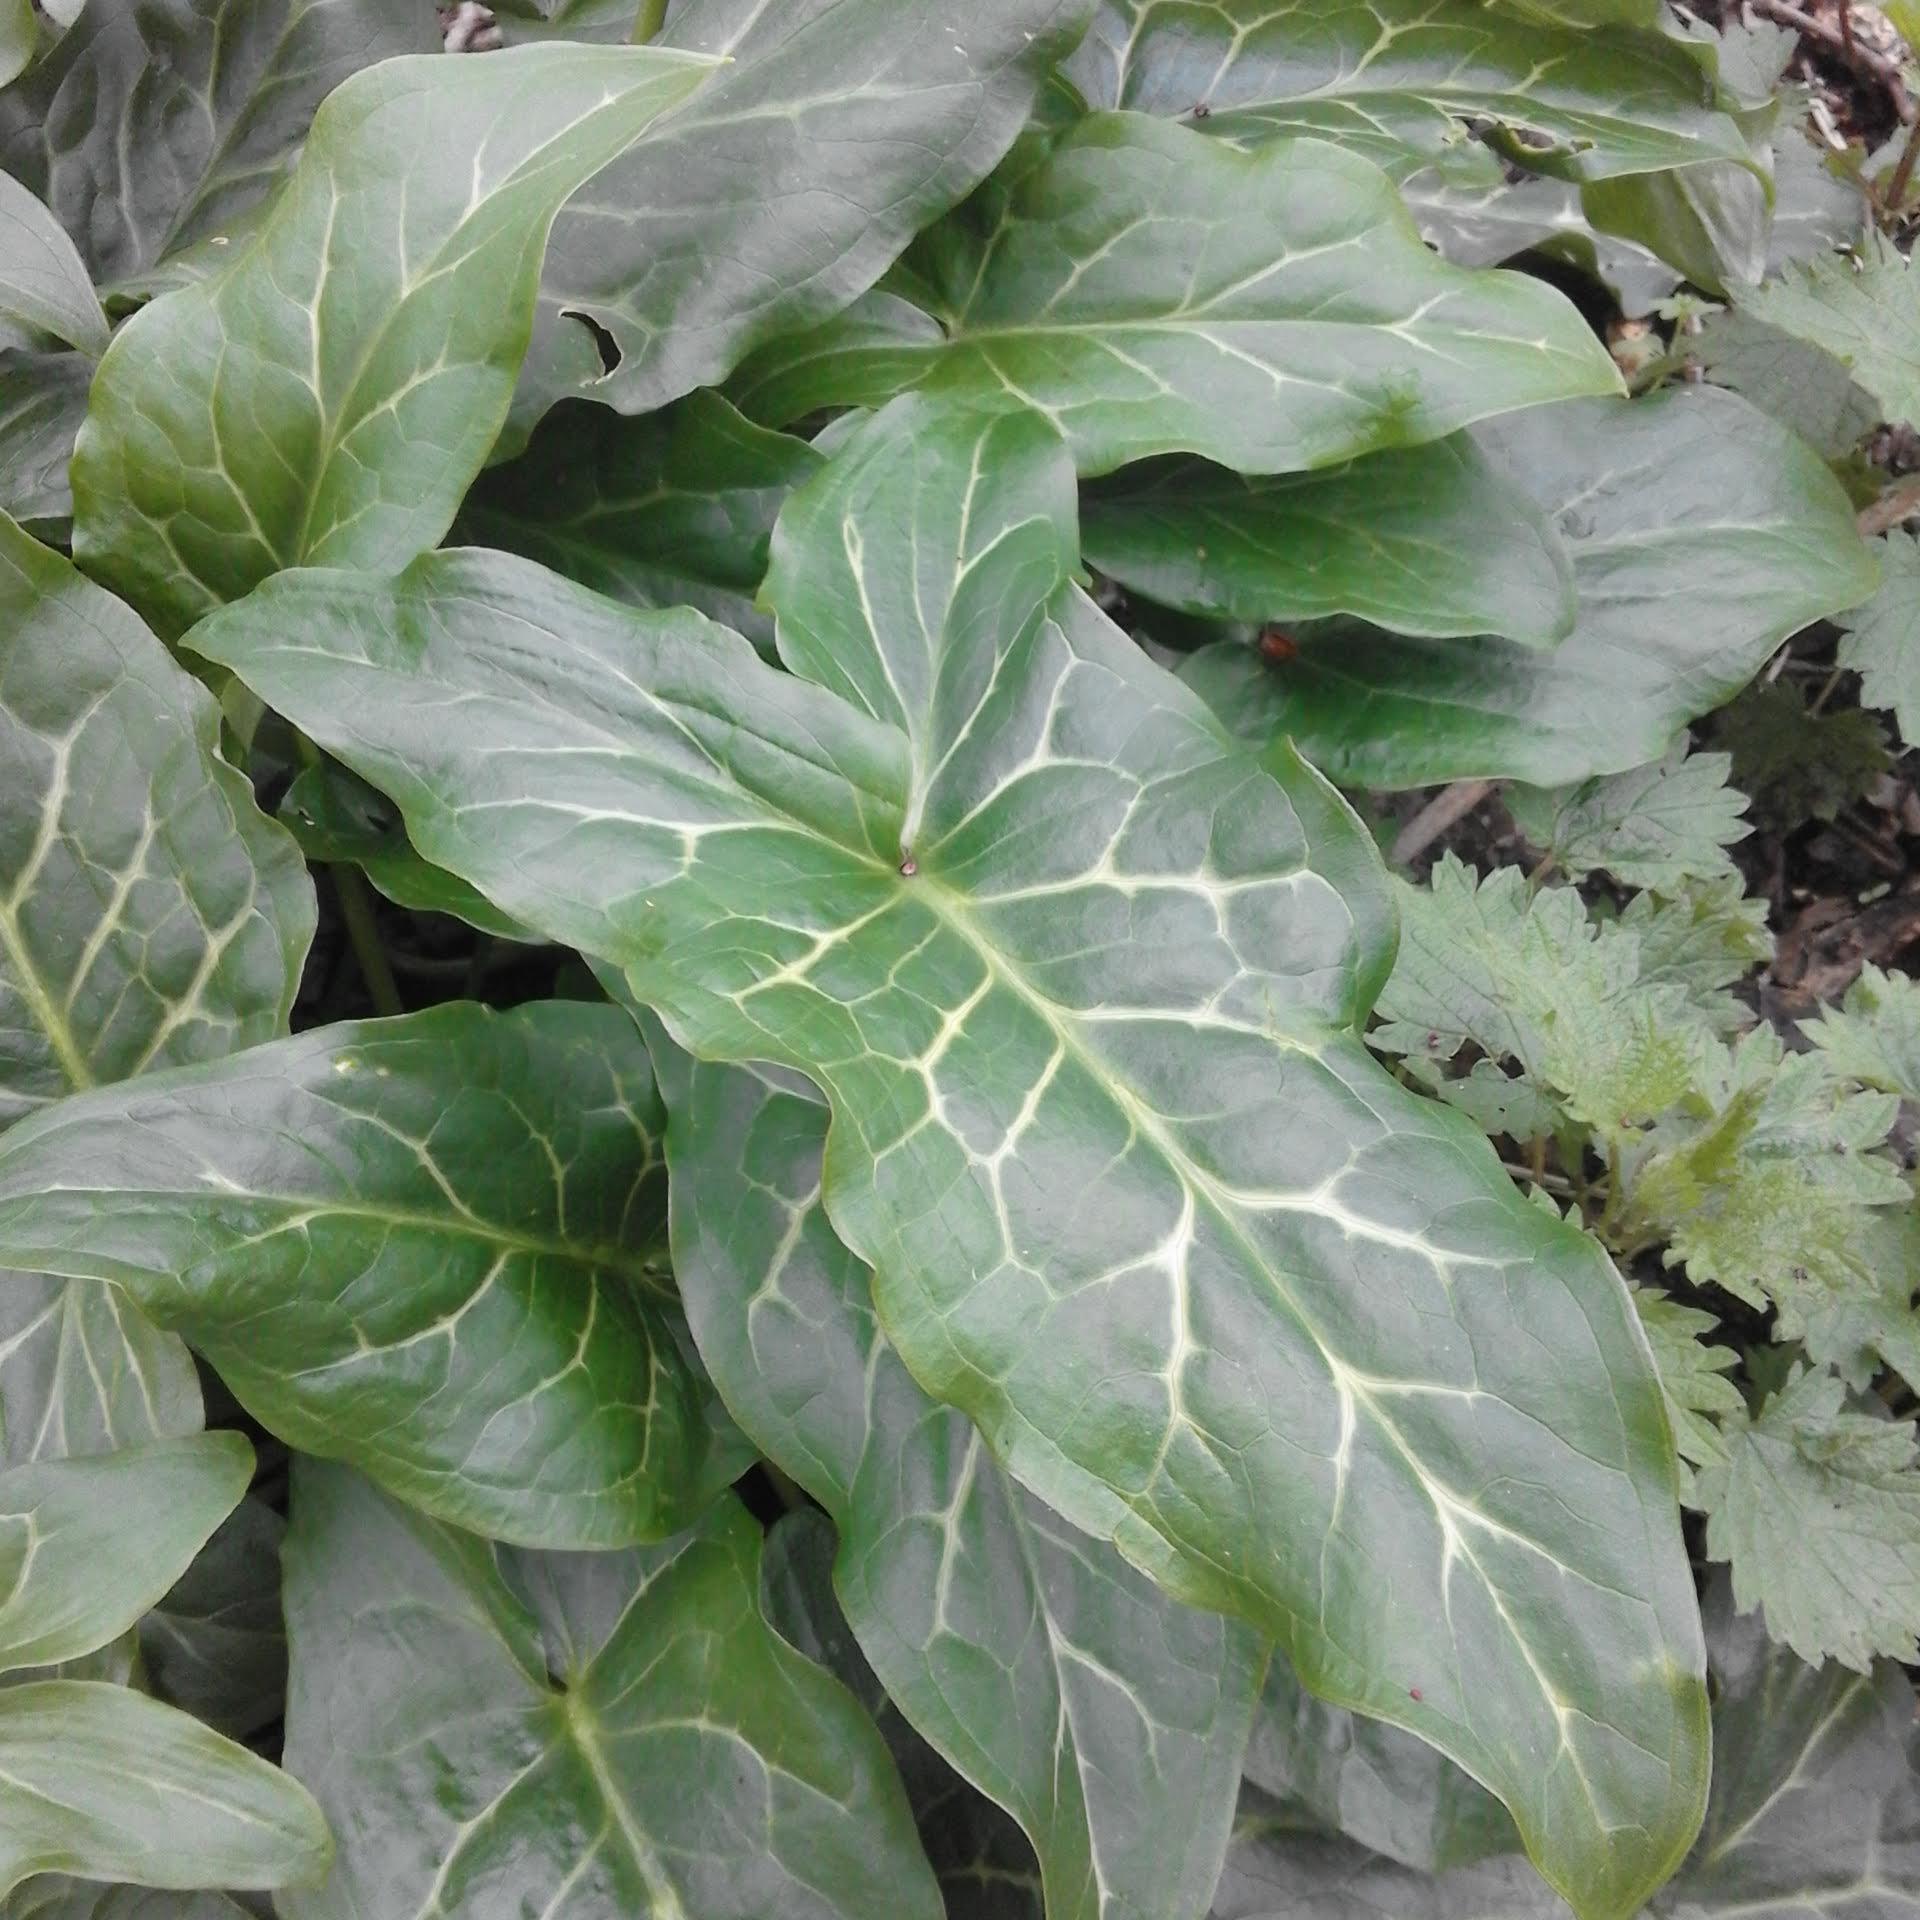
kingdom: Plantae
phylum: Tracheophyta
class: Liliopsida
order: Alismatales
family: Araceae
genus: Arum
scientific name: Arum italicum
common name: Italian lords-and-ladies
